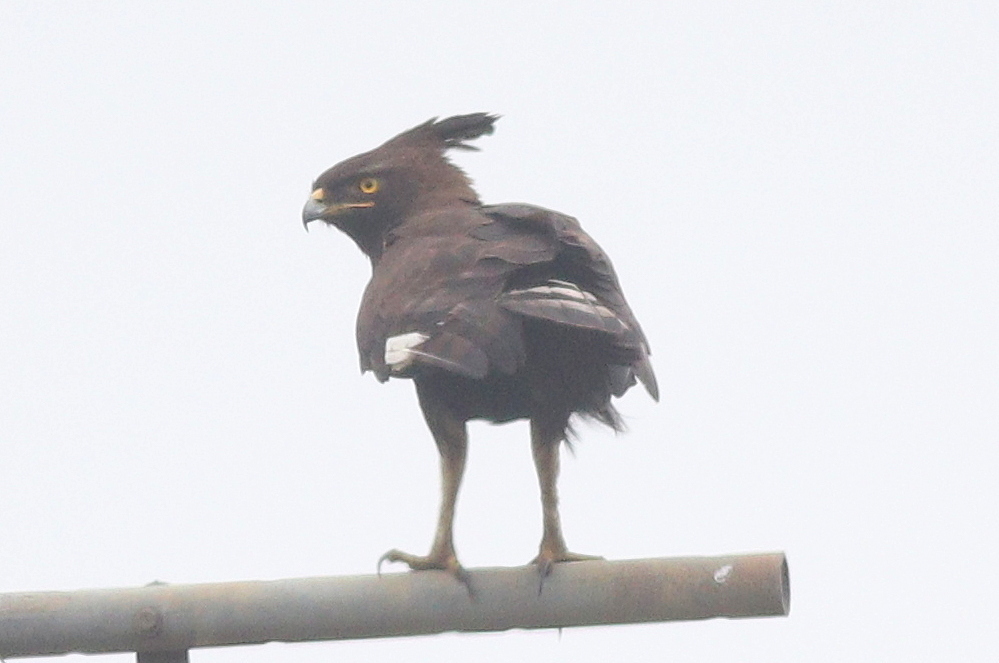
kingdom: Animalia
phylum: Chordata
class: Aves
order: Accipitriformes
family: Accipitridae
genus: Lophaetus
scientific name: Lophaetus occipitalis
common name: Long-crested eagle
